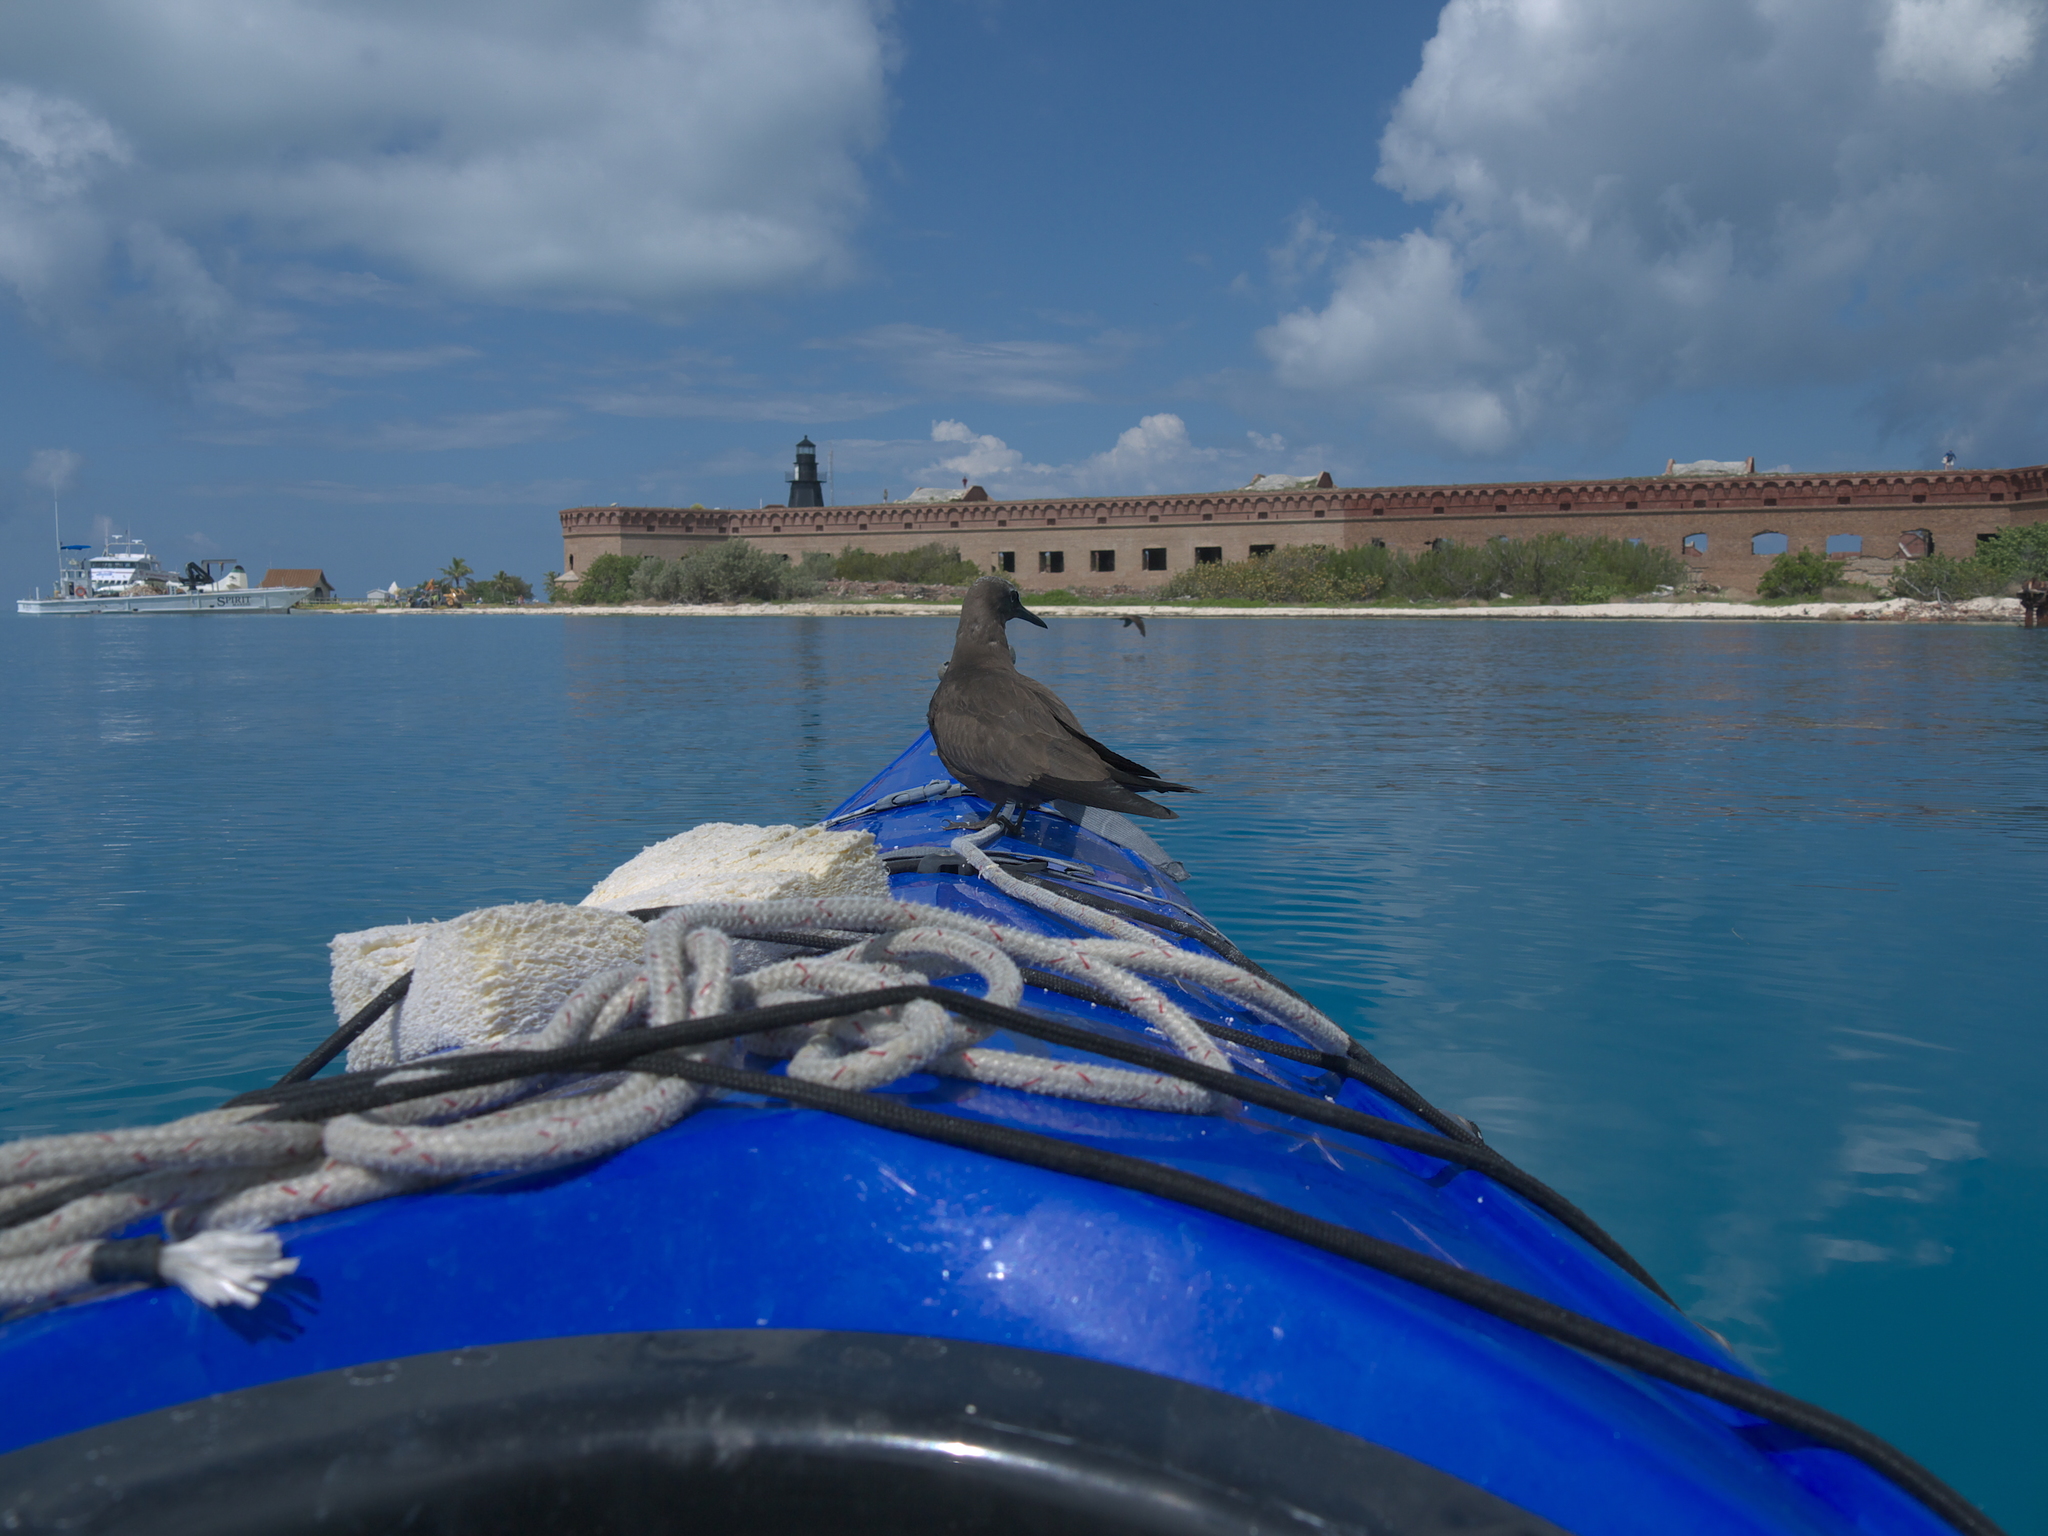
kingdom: Animalia
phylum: Chordata
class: Aves
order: Charadriiformes
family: Laridae
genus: Anous
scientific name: Anous stolidus
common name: Brown noddy
